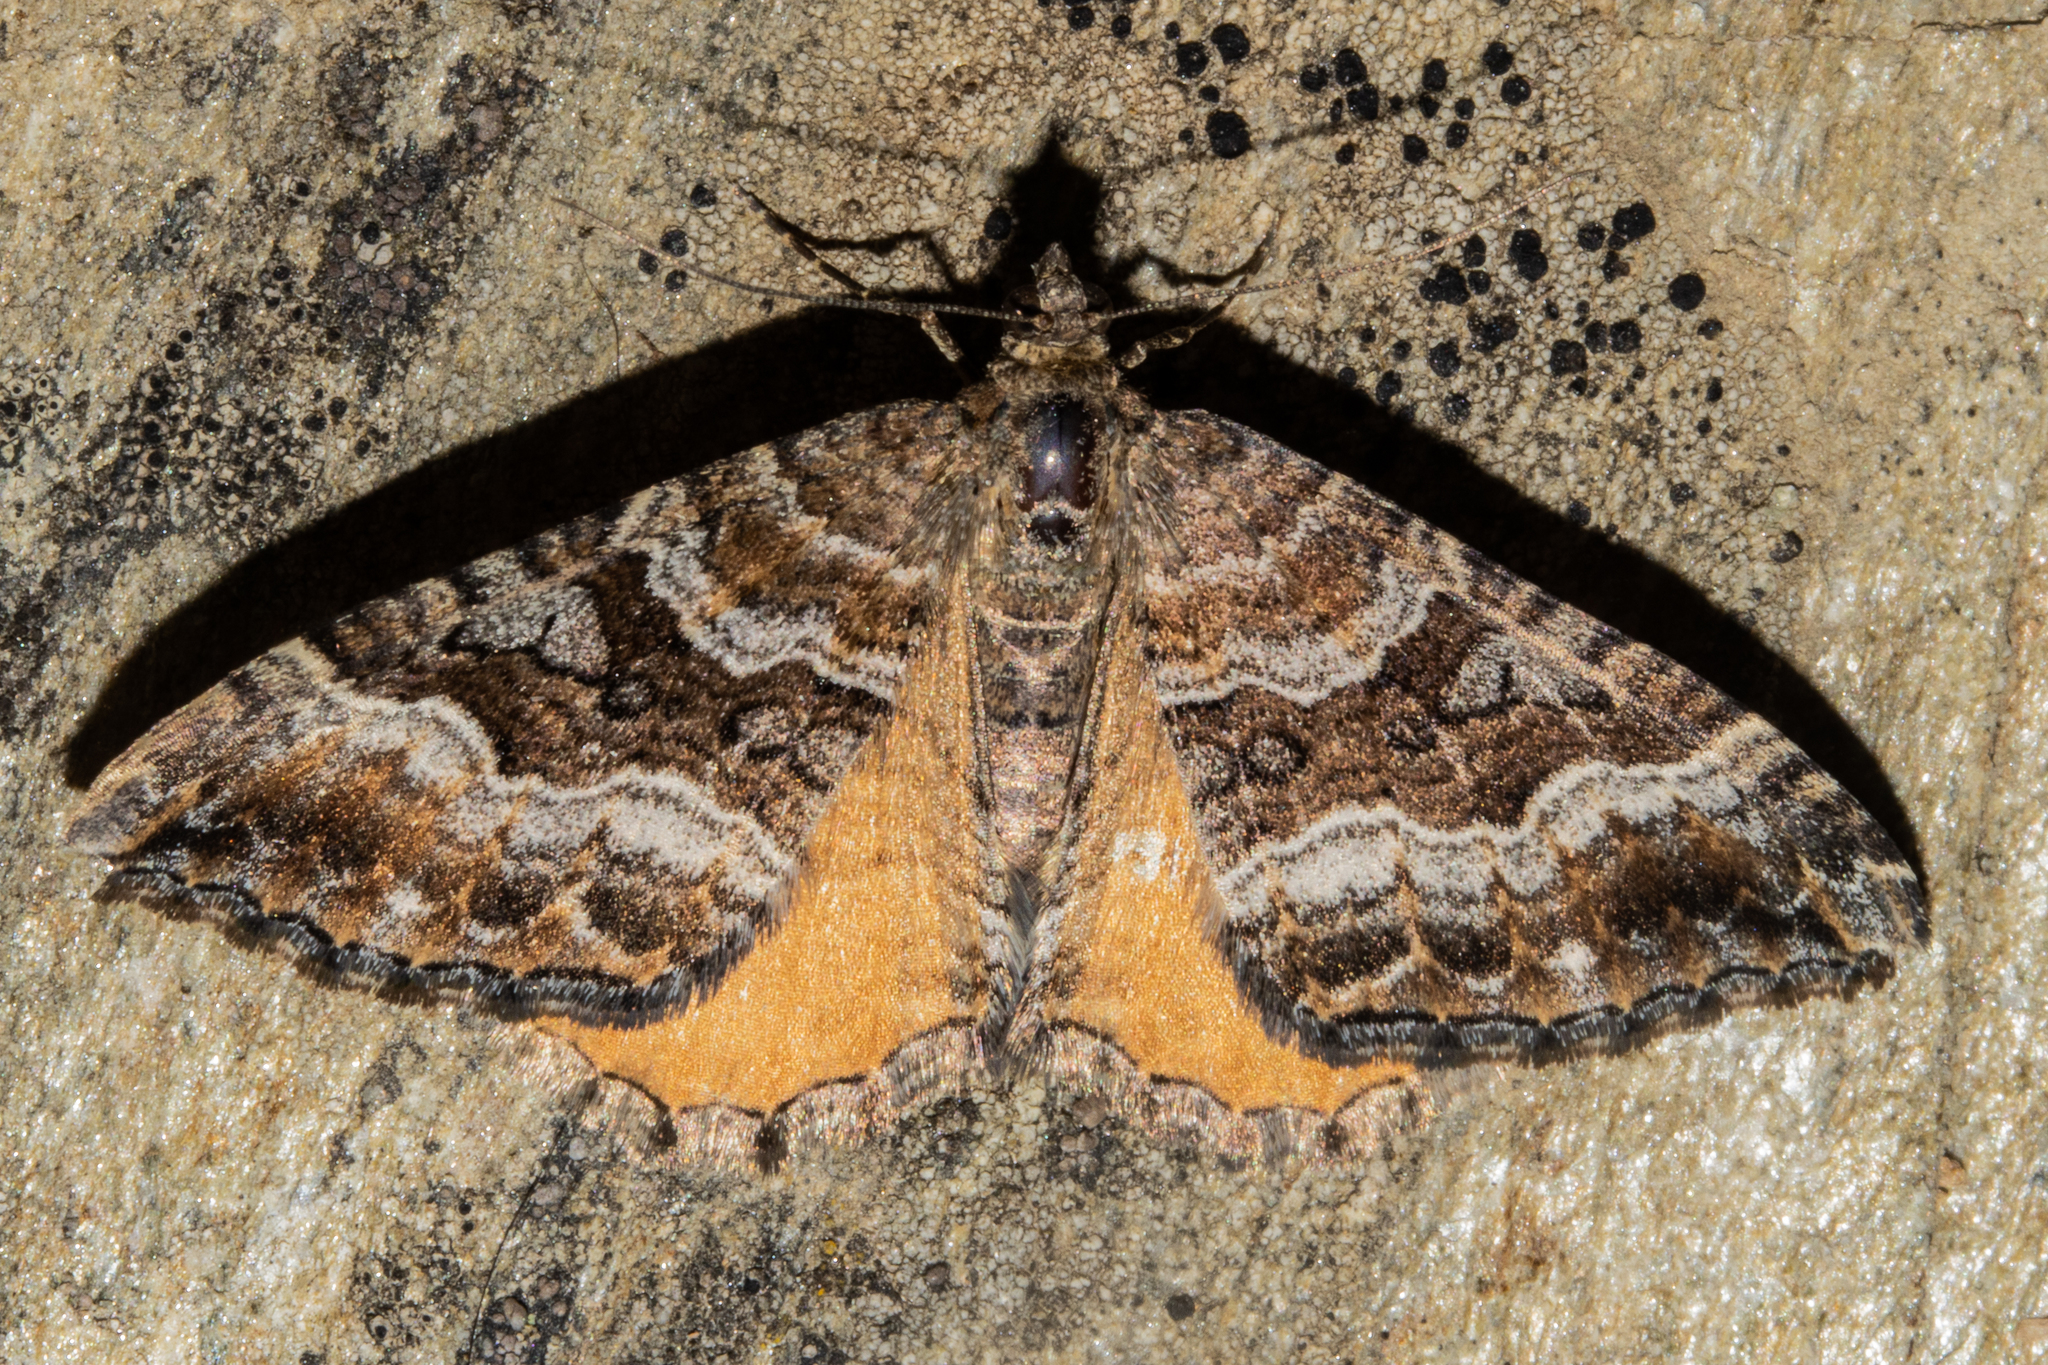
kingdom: Animalia
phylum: Arthropoda
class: Insecta
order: Lepidoptera
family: Geometridae
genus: Hydriomena
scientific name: Hydriomena deltoidata
